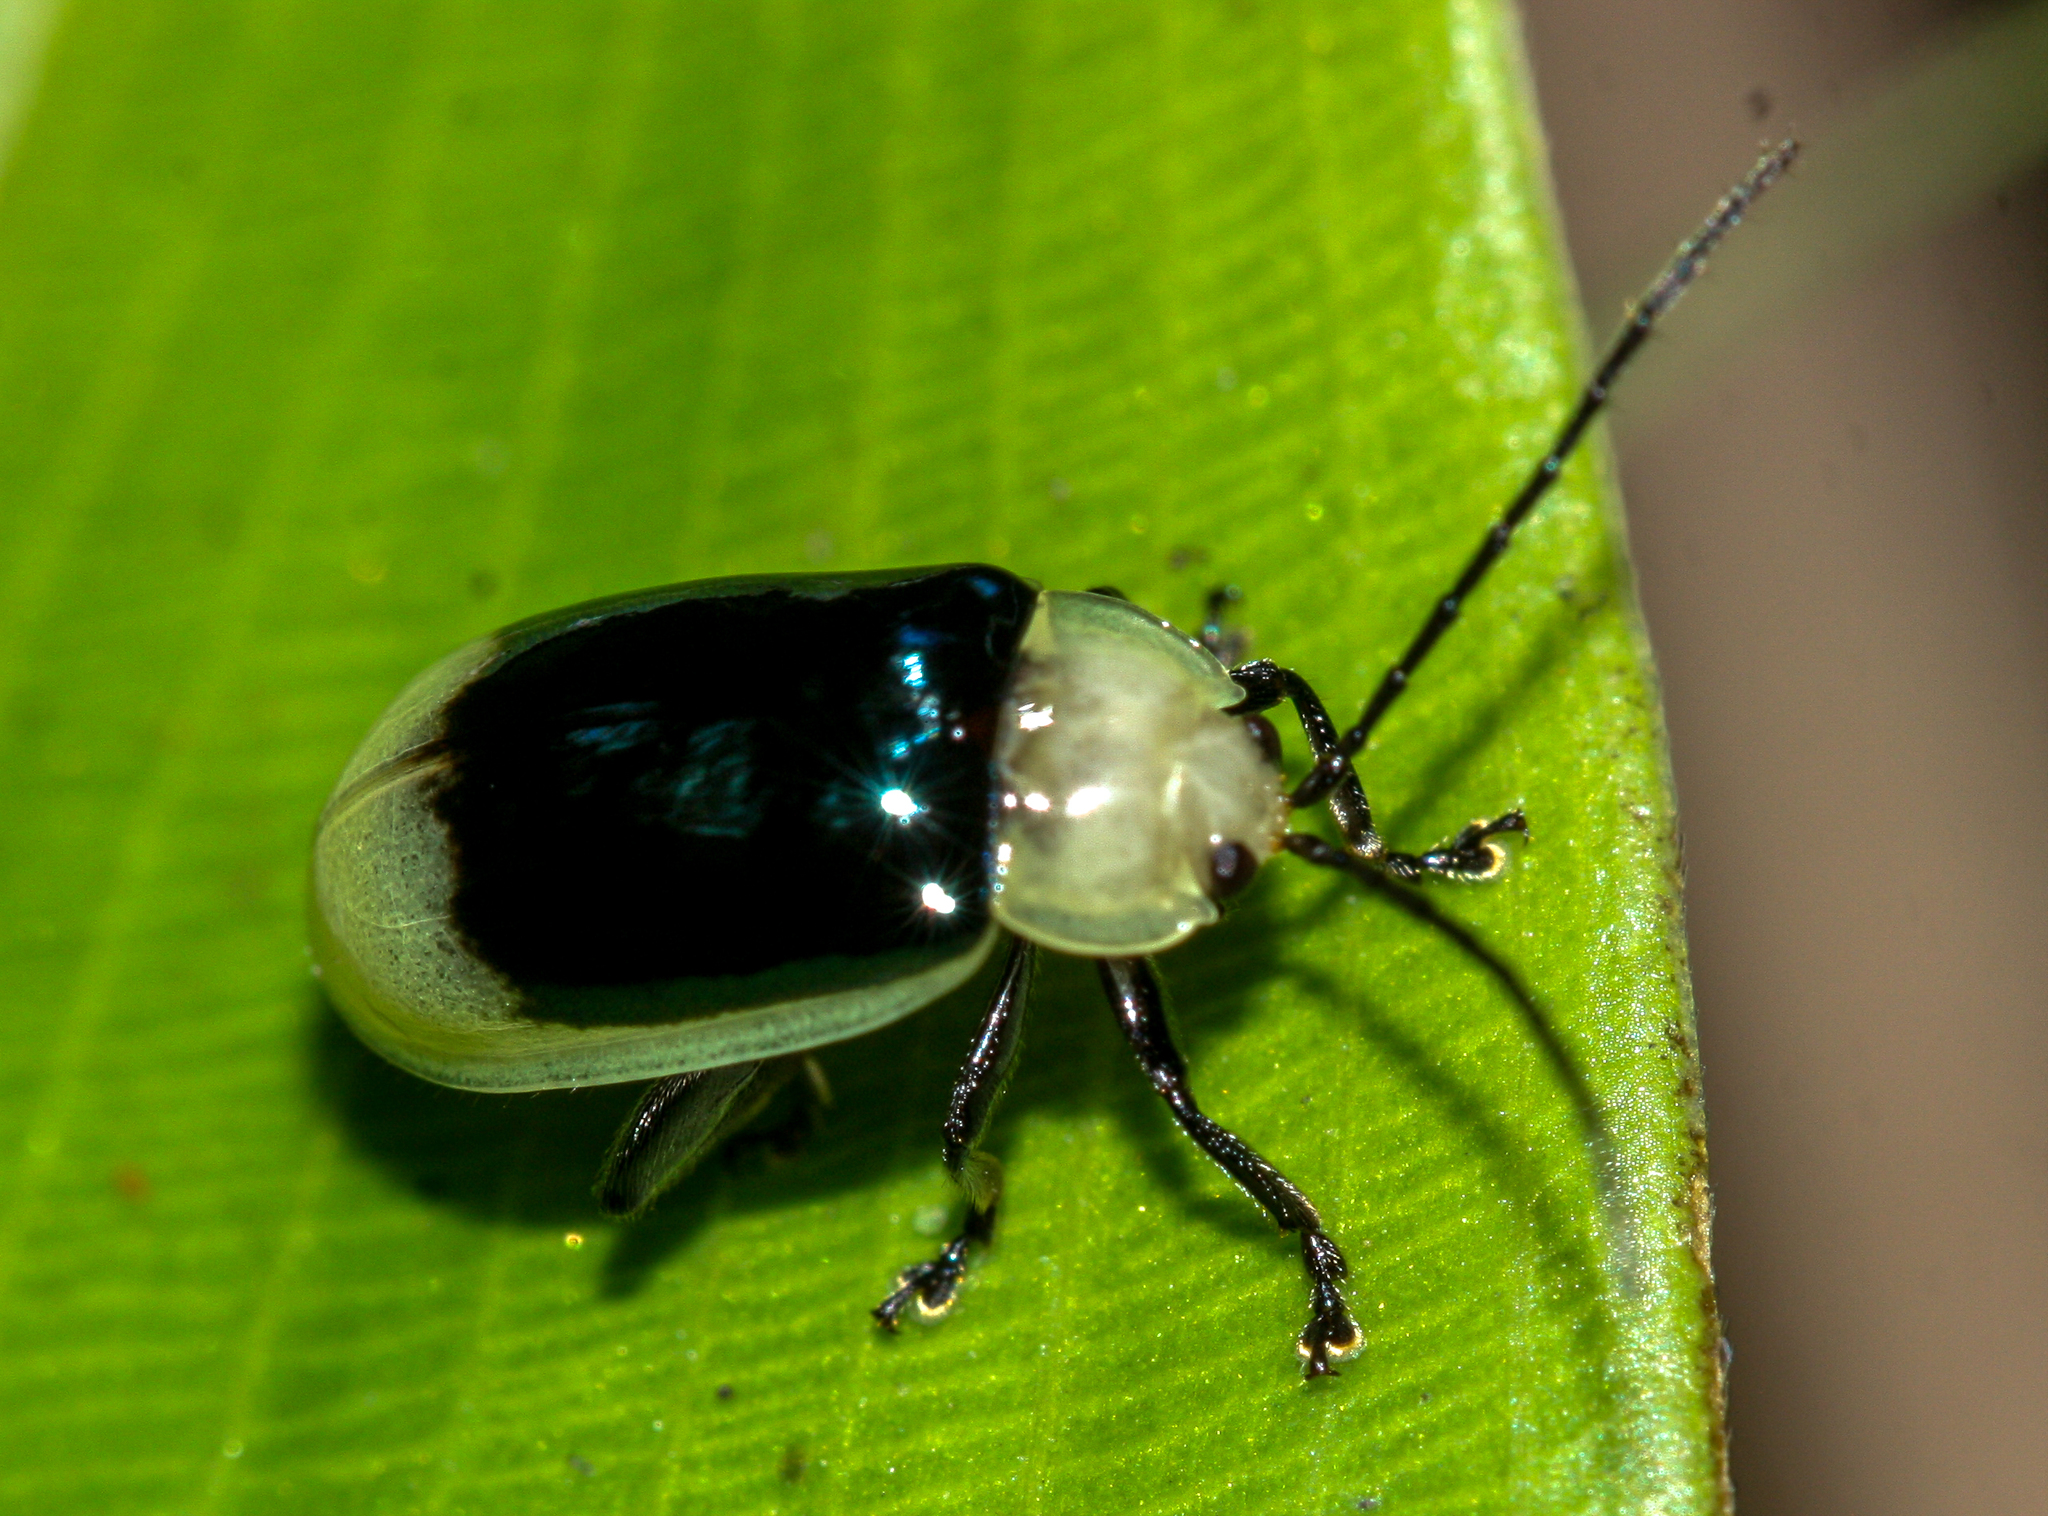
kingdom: Animalia
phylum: Arthropoda
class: Insecta
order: Coleoptera
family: Chrysomelidae
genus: Asphaera
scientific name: Asphaera
